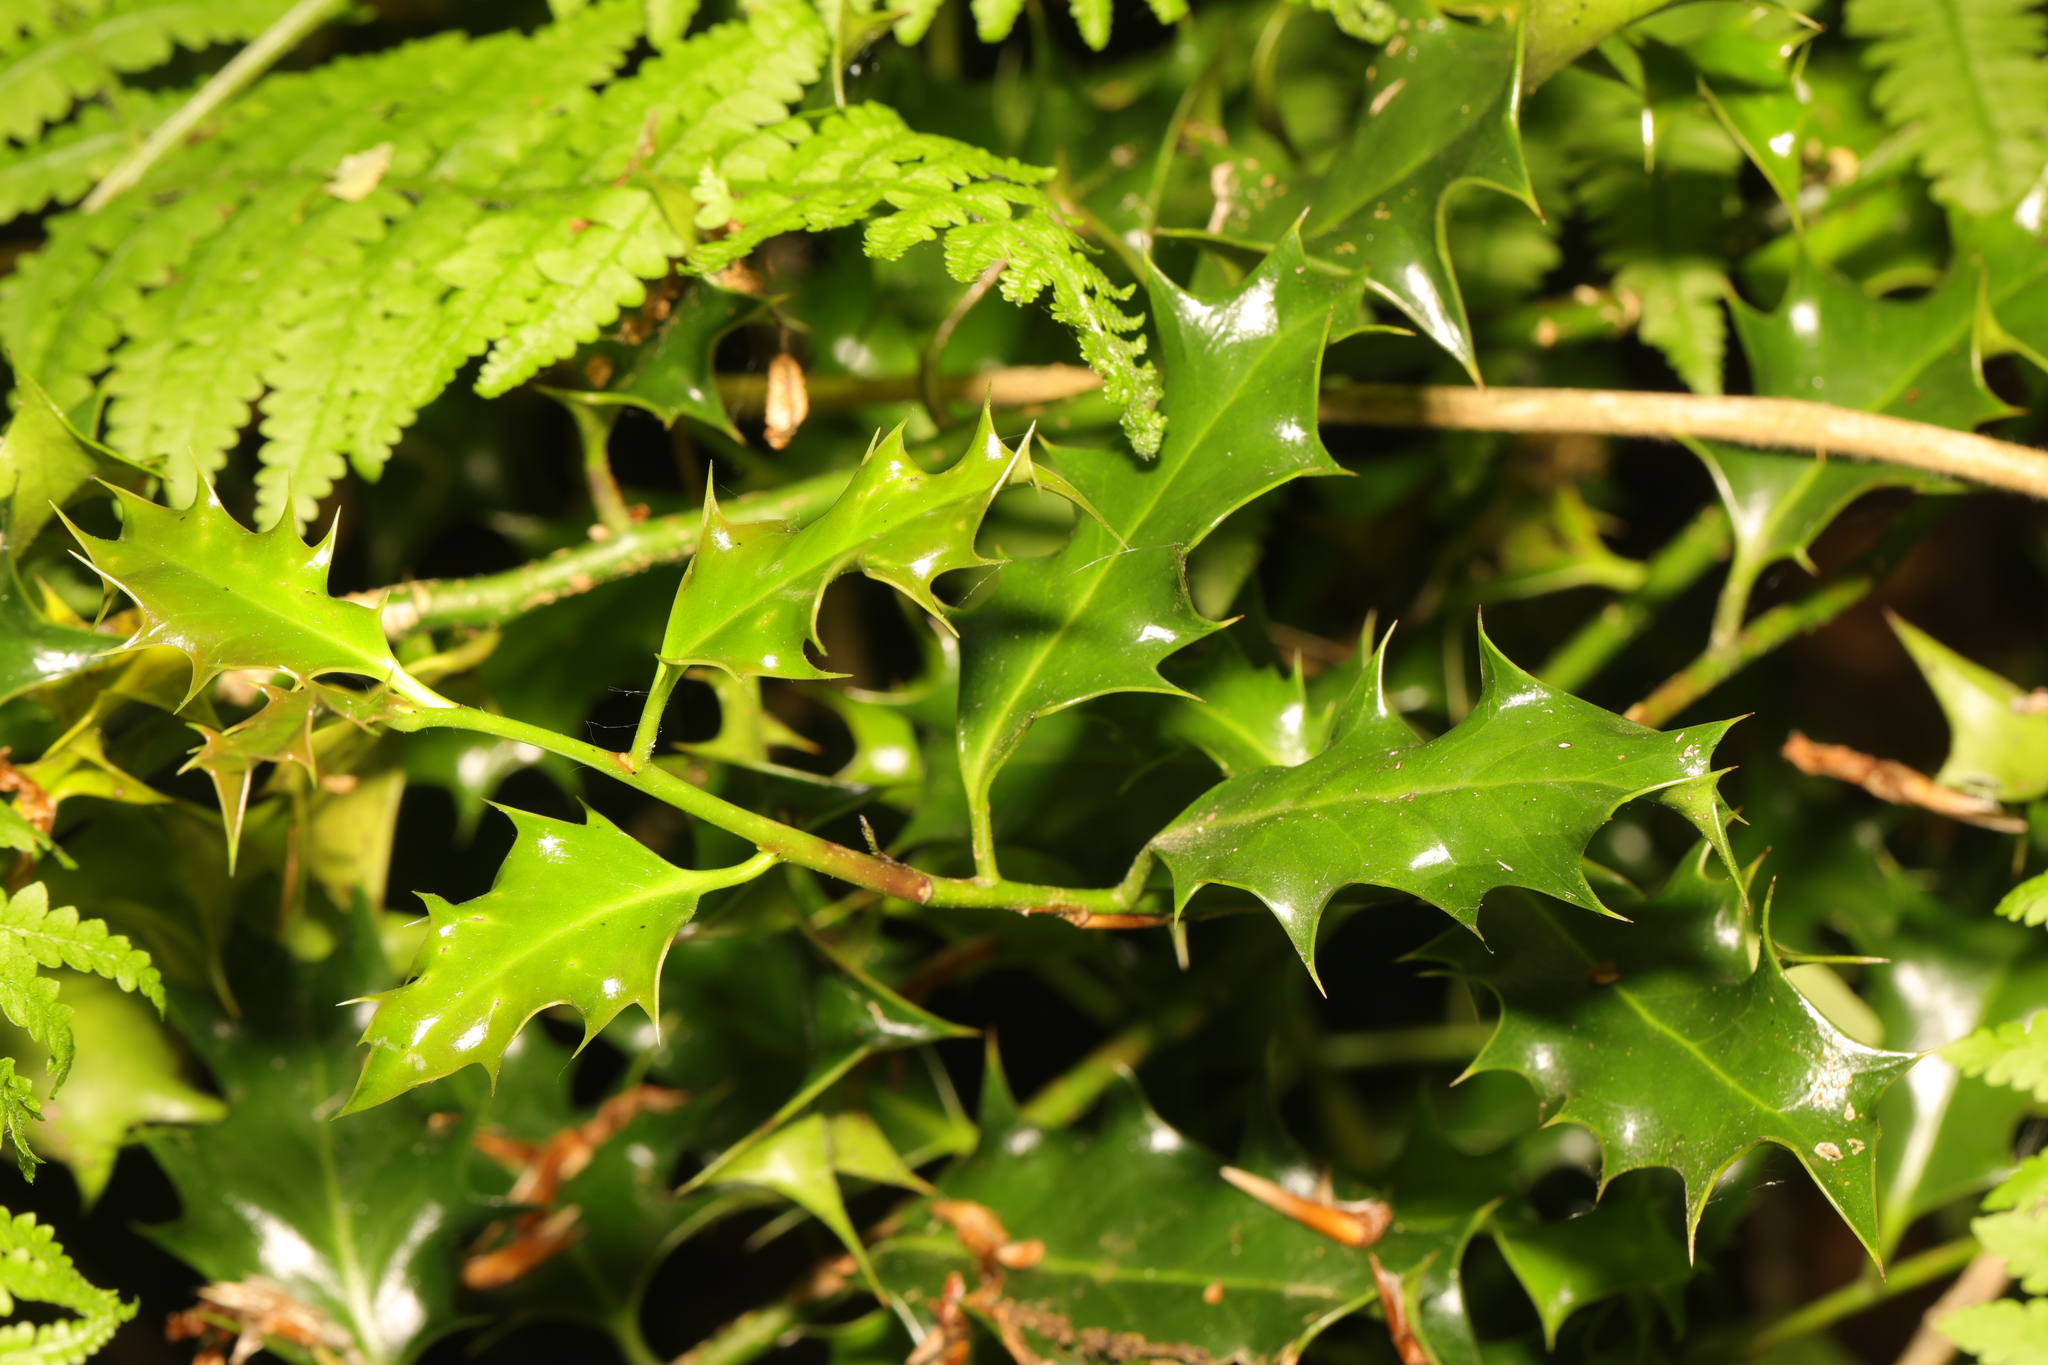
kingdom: Plantae
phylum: Tracheophyta
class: Magnoliopsida
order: Aquifoliales
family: Aquifoliaceae
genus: Ilex
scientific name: Ilex aquifolium
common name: English holly
